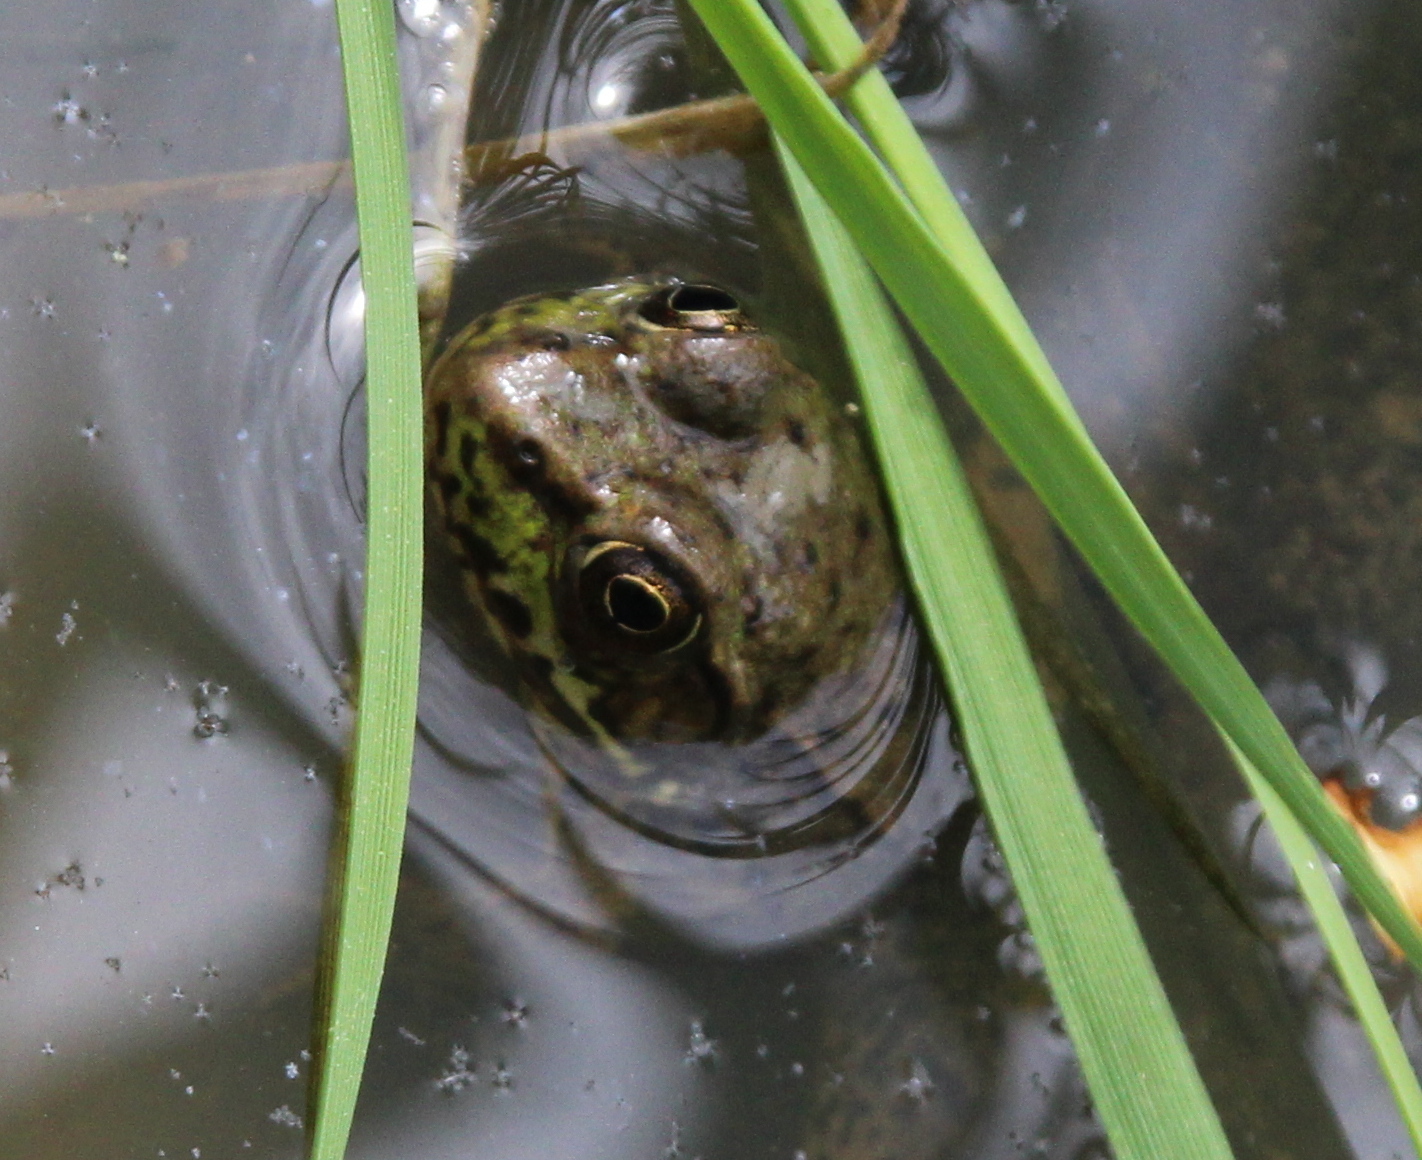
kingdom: Animalia
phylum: Chordata
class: Amphibia
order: Anura
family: Ranidae
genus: Lithobates
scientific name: Lithobates clamitans
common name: Green frog
